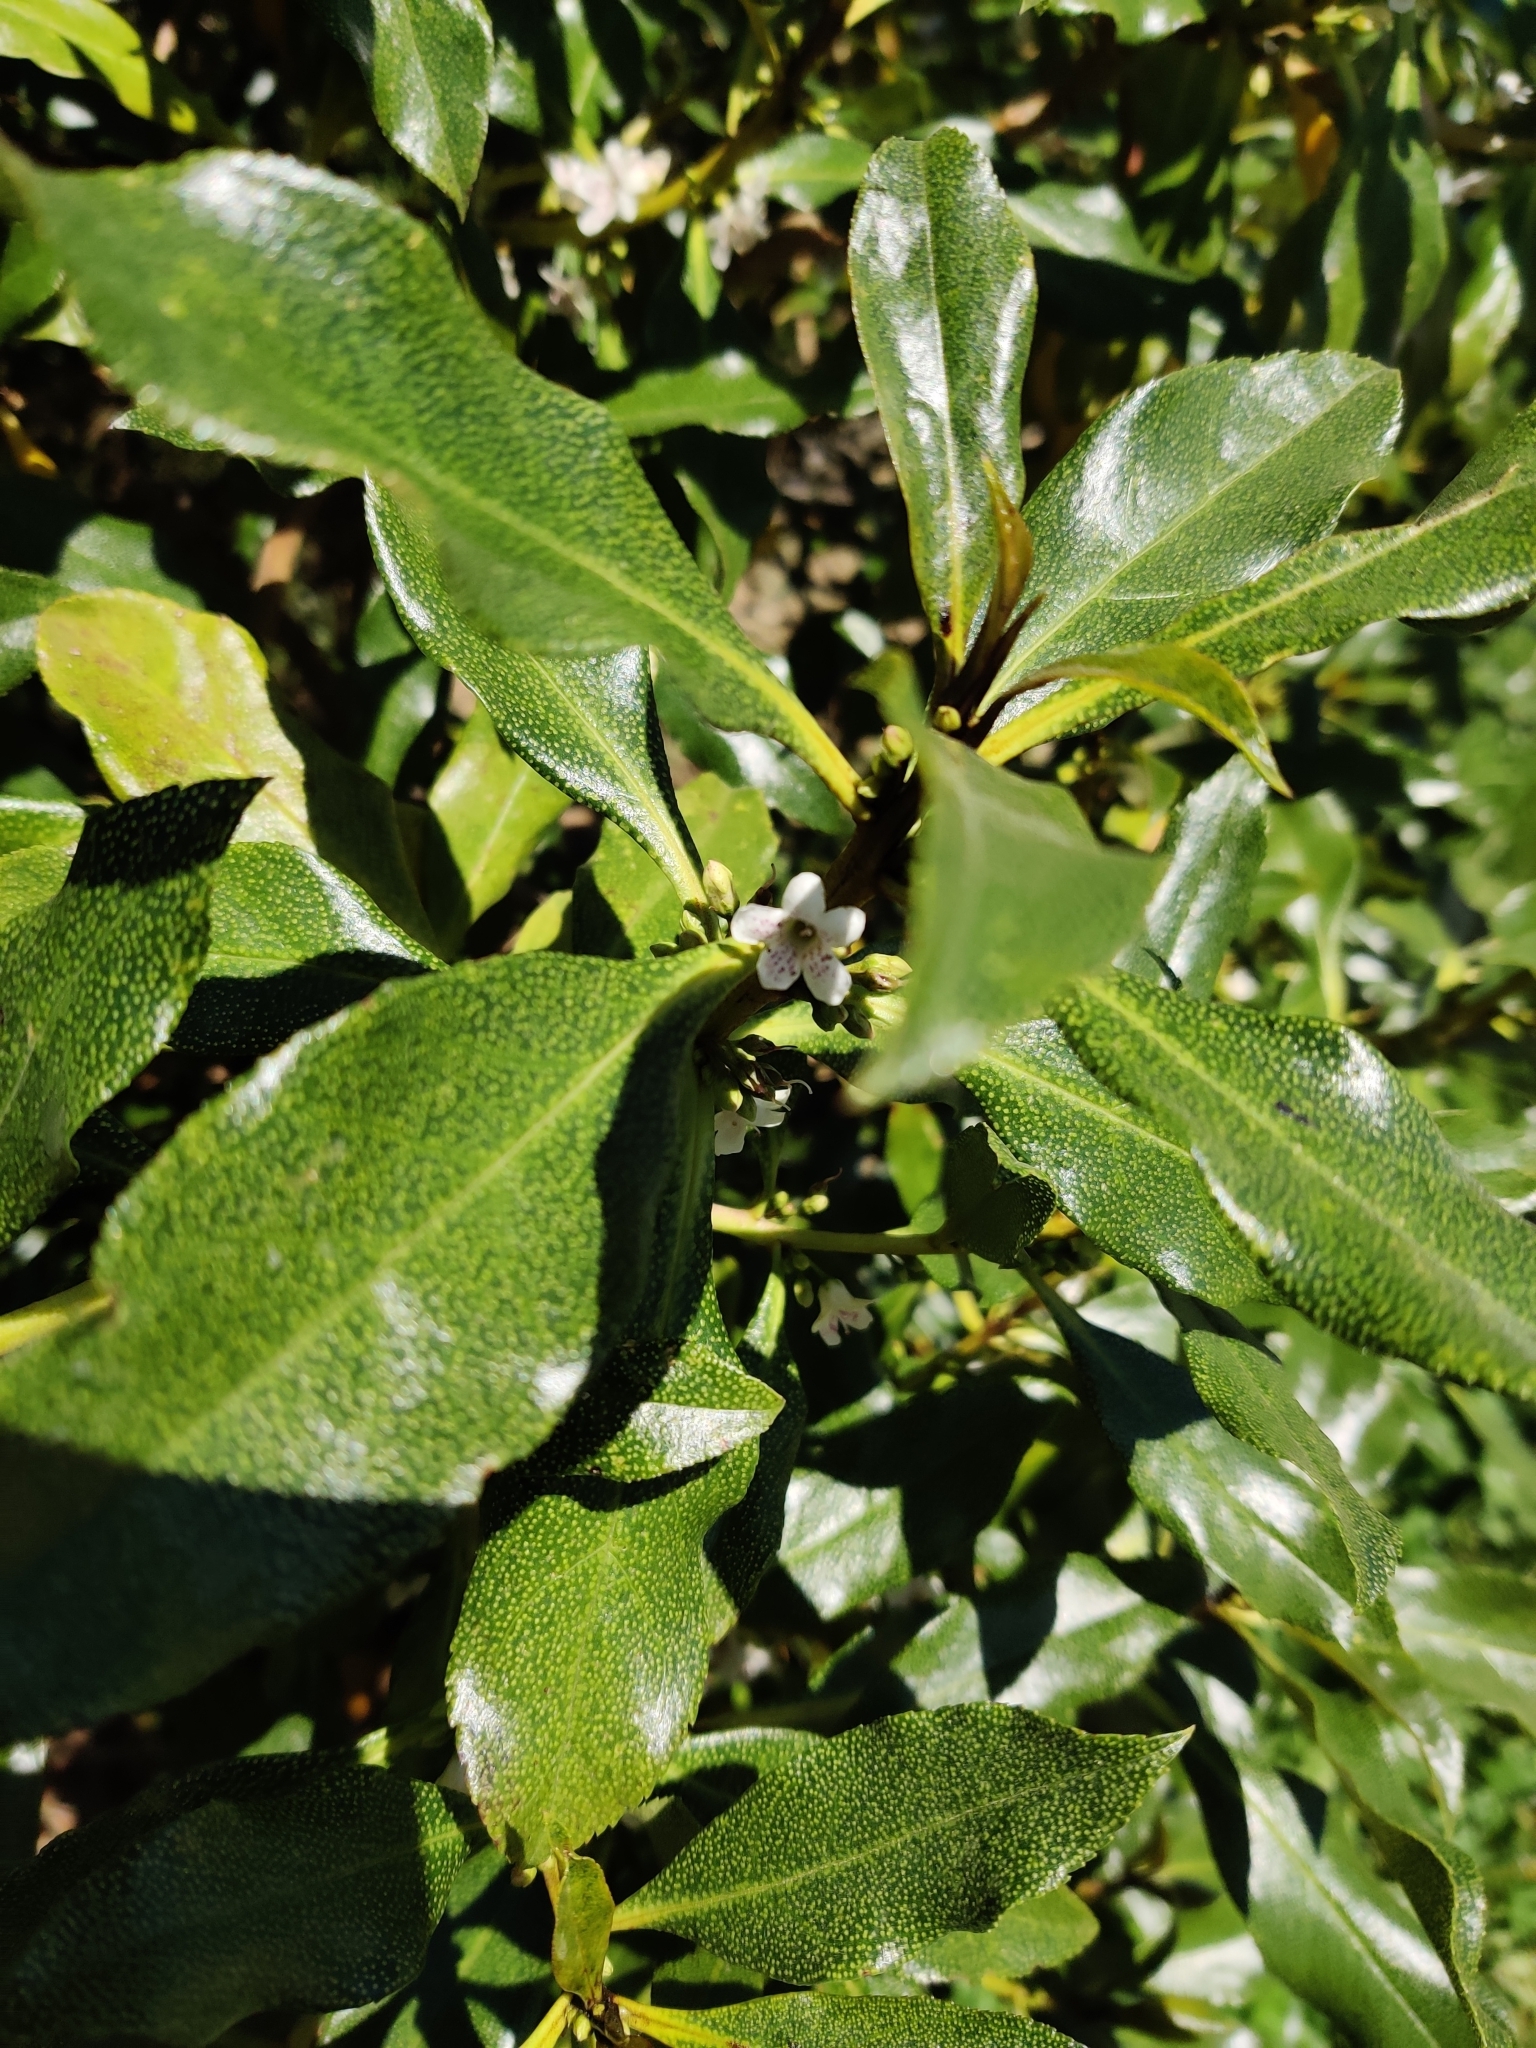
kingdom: Plantae
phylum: Tracheophyta
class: Magnoliopsida
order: Lamiales
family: Scrophulariaceae
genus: Myoporum
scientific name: Myoporum laetum
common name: Ngaio tree
